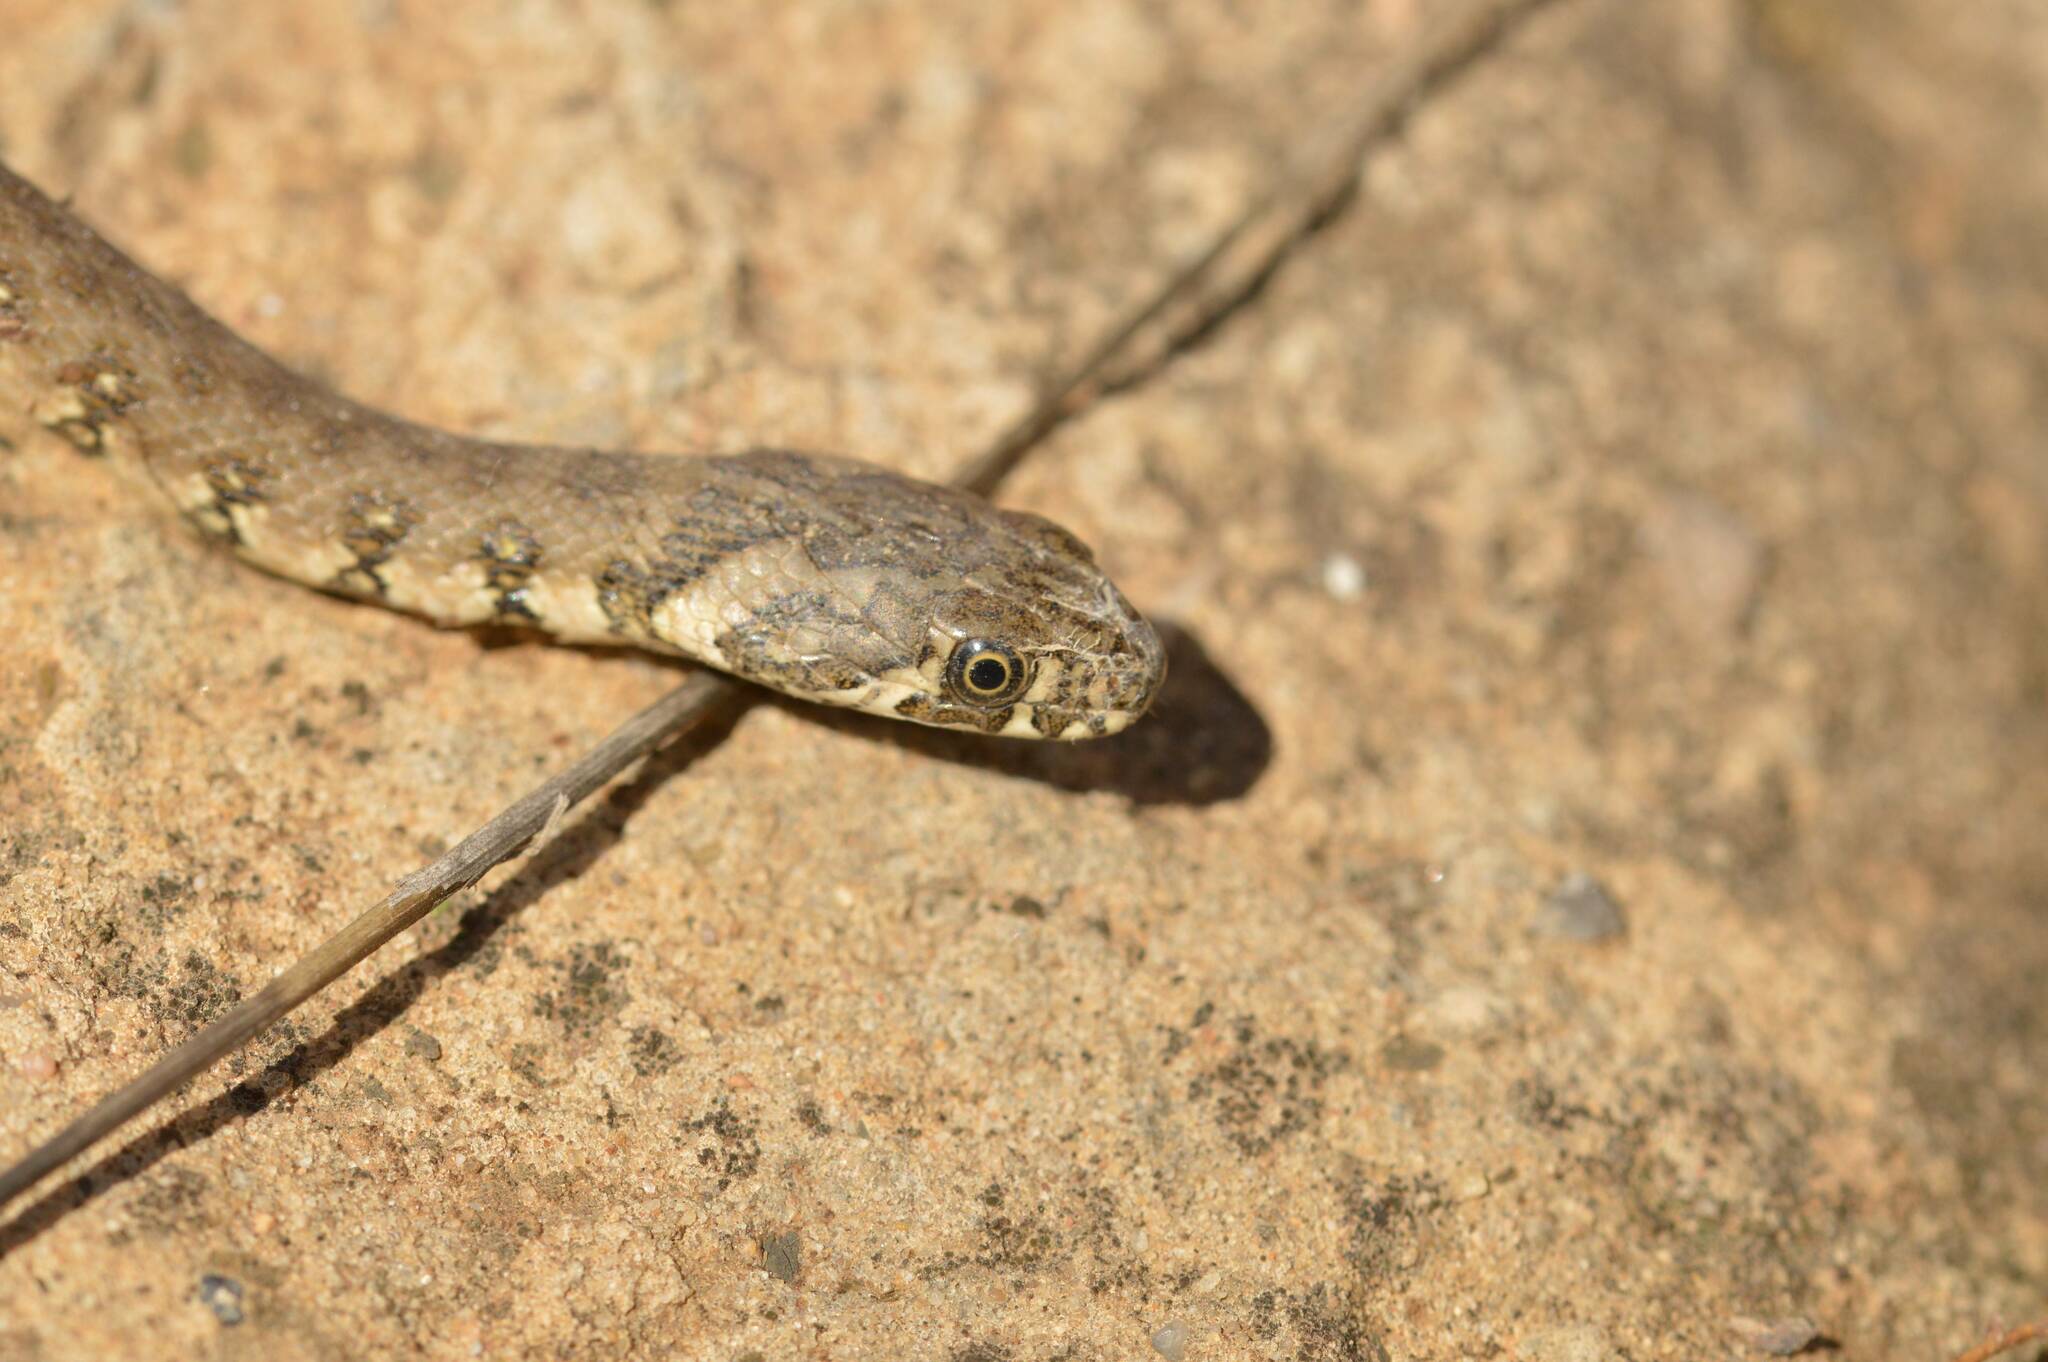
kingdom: Animalia
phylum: Chordata
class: Squamata
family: Colubridae
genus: Natrix
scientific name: Natrix maura
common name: Viperine water snake
